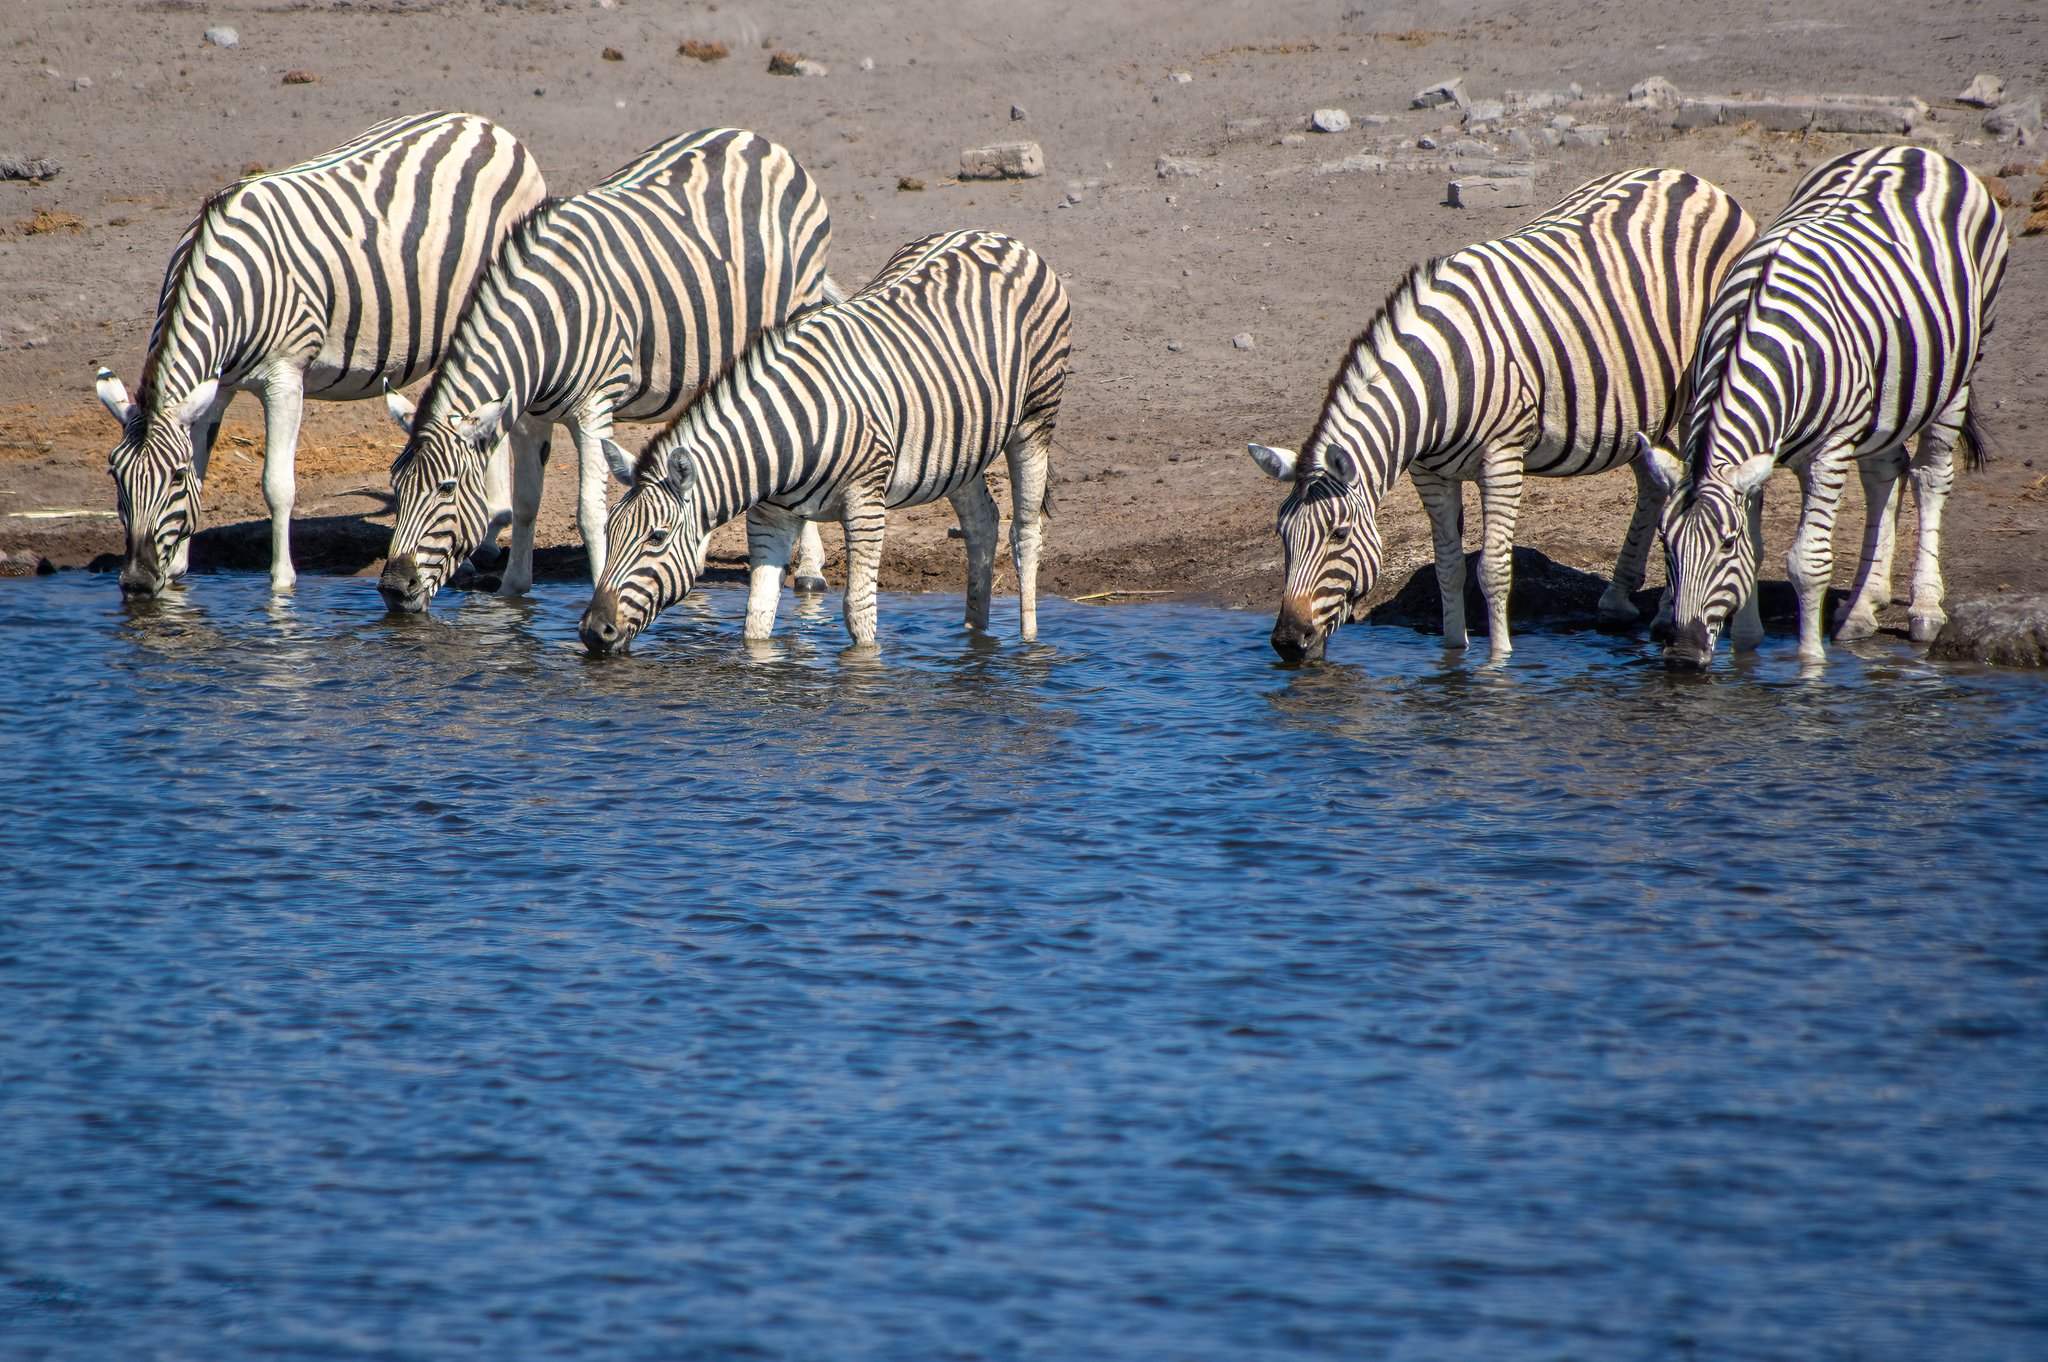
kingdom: Animalia
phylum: Chordata
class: Mammalia
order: Perissodactyla
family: Equidae
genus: Equus
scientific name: Equus quagga
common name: Plains zebra
